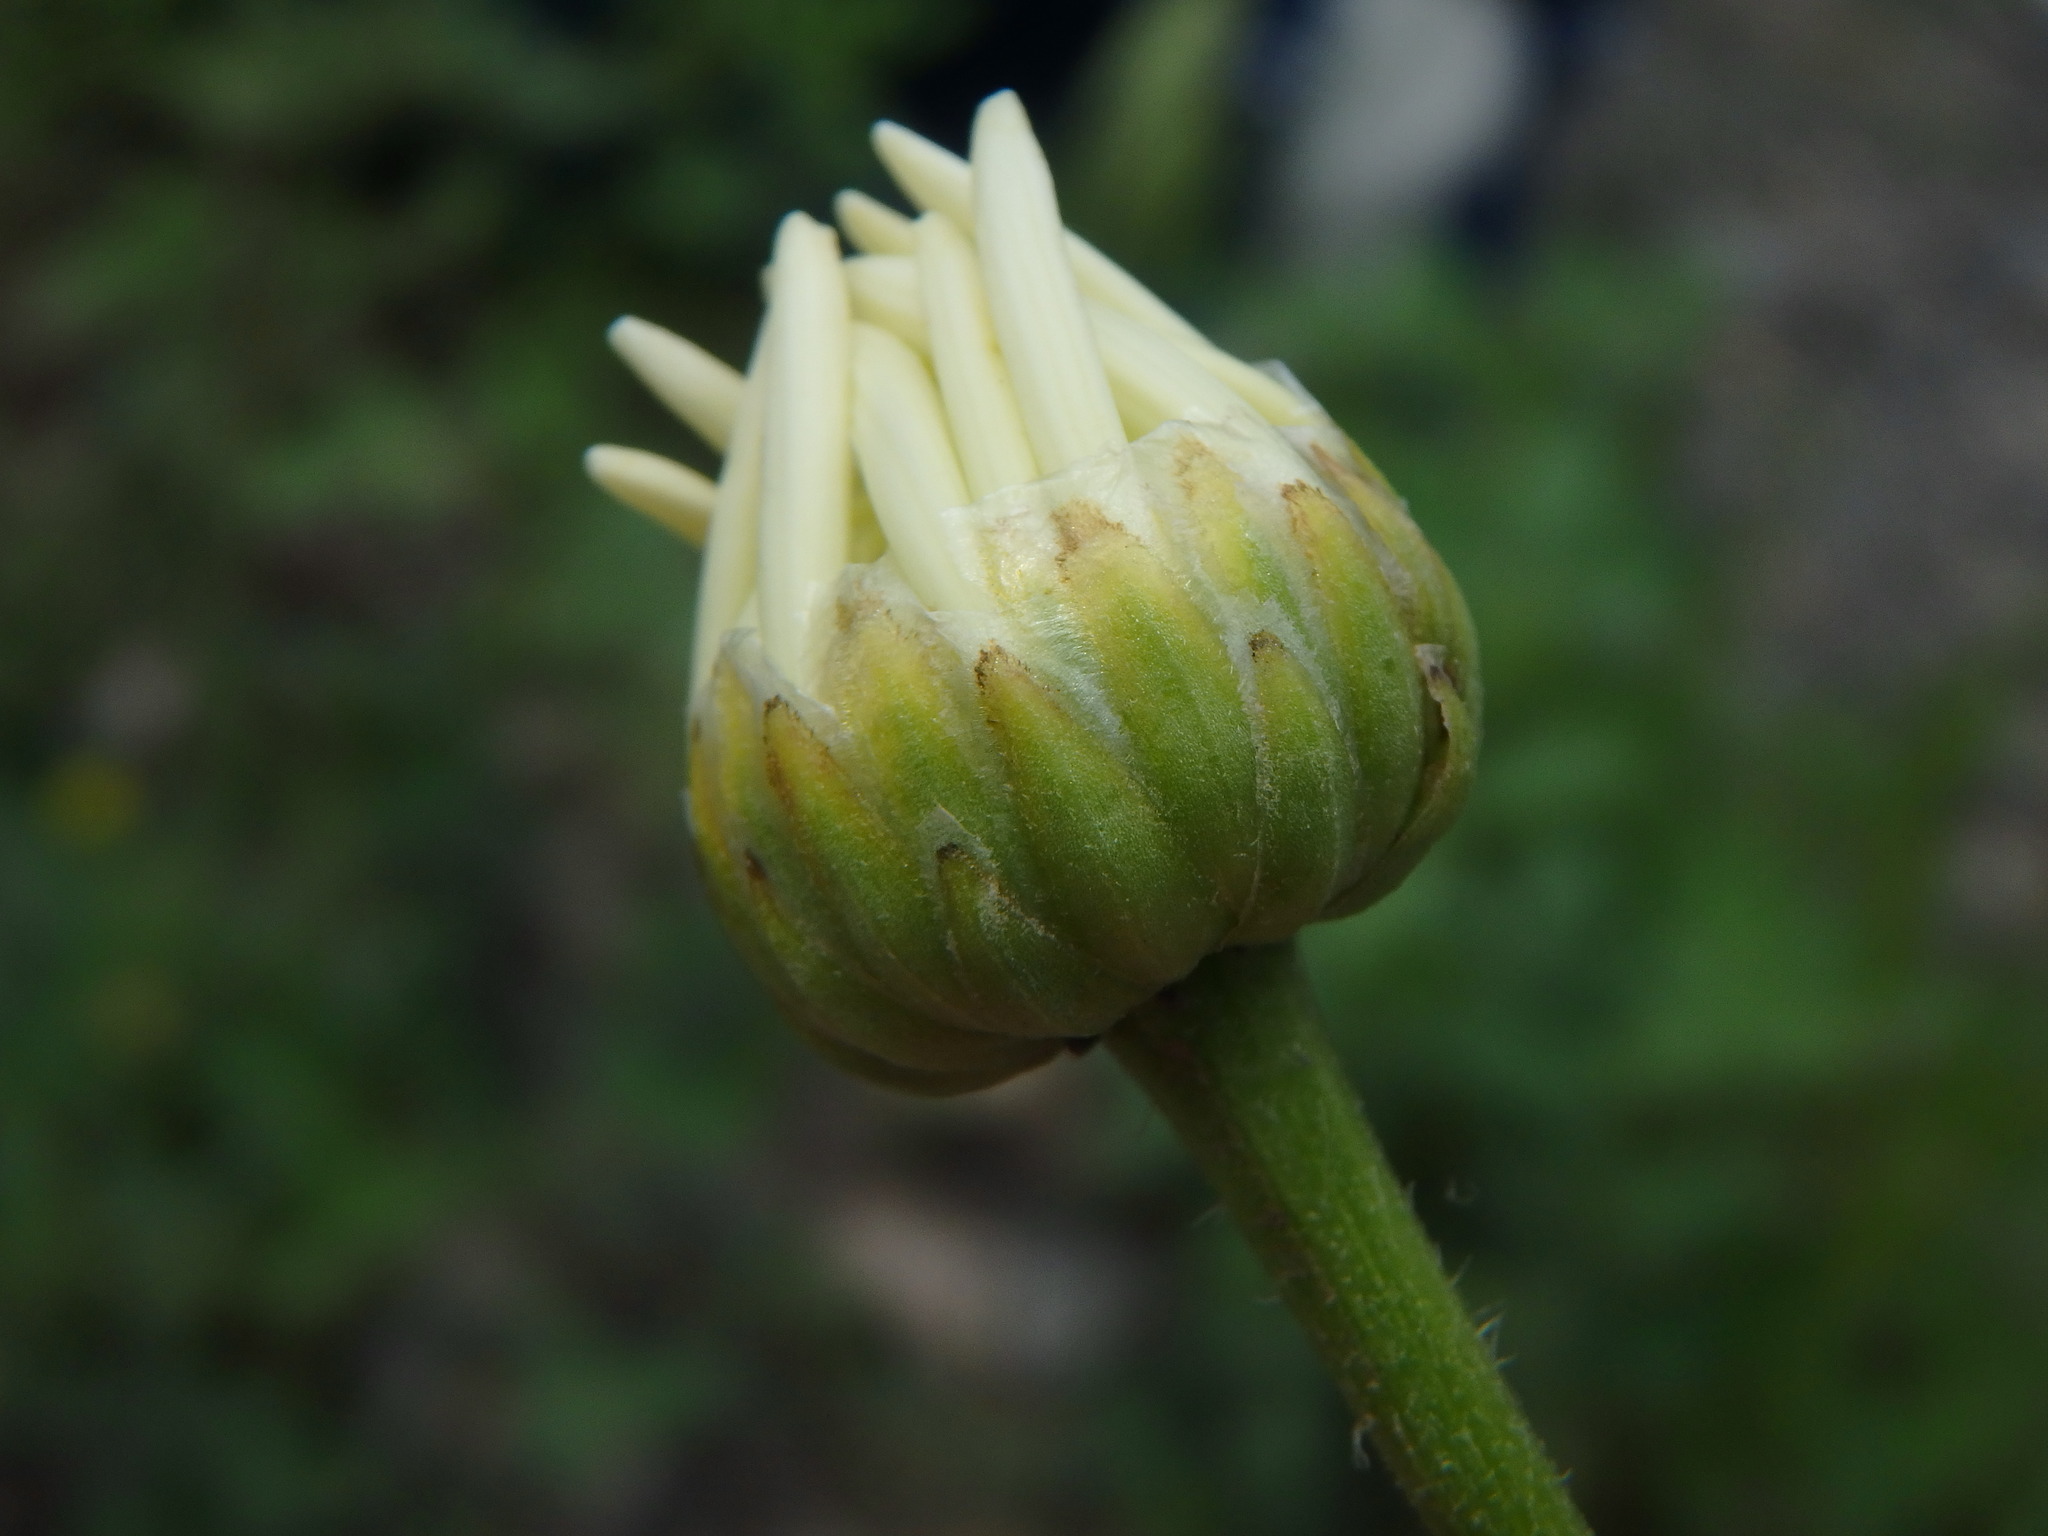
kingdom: Plantae
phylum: Tracheophyta
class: Magnoliopsida
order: Asterales
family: Asteraceae
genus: Leucanthemum
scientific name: Leucanthemum pallens
